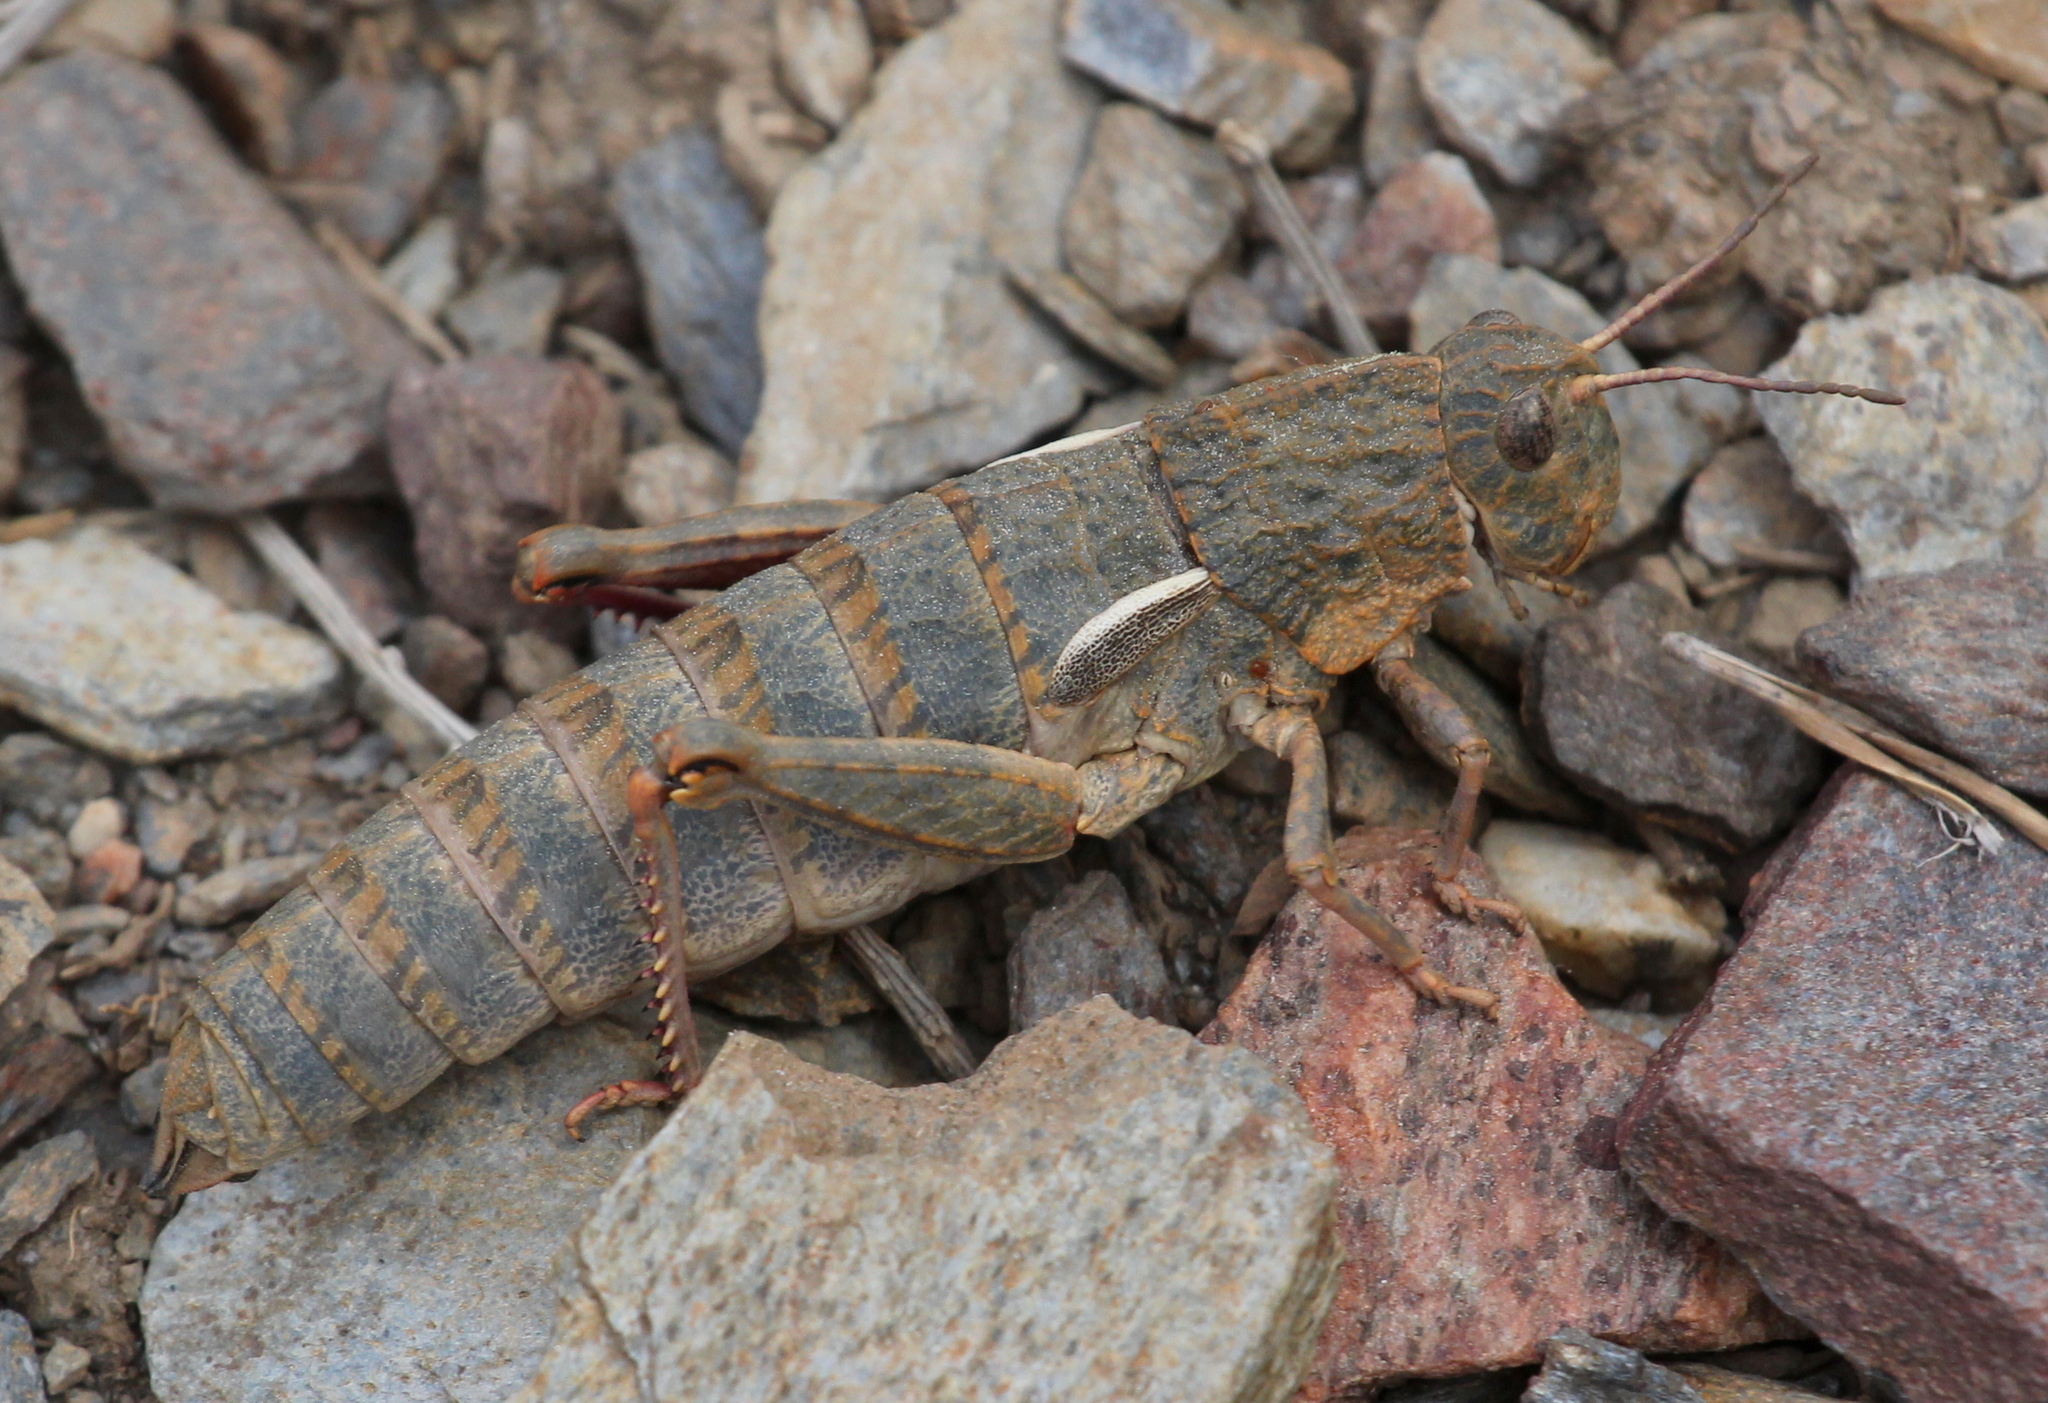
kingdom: Animalia
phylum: Arthropoda
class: Insecta
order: Orthoptera
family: Pamphagidae
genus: Eumigus
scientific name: Eumigus rubioi
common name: Rubio's stone grasshopper
